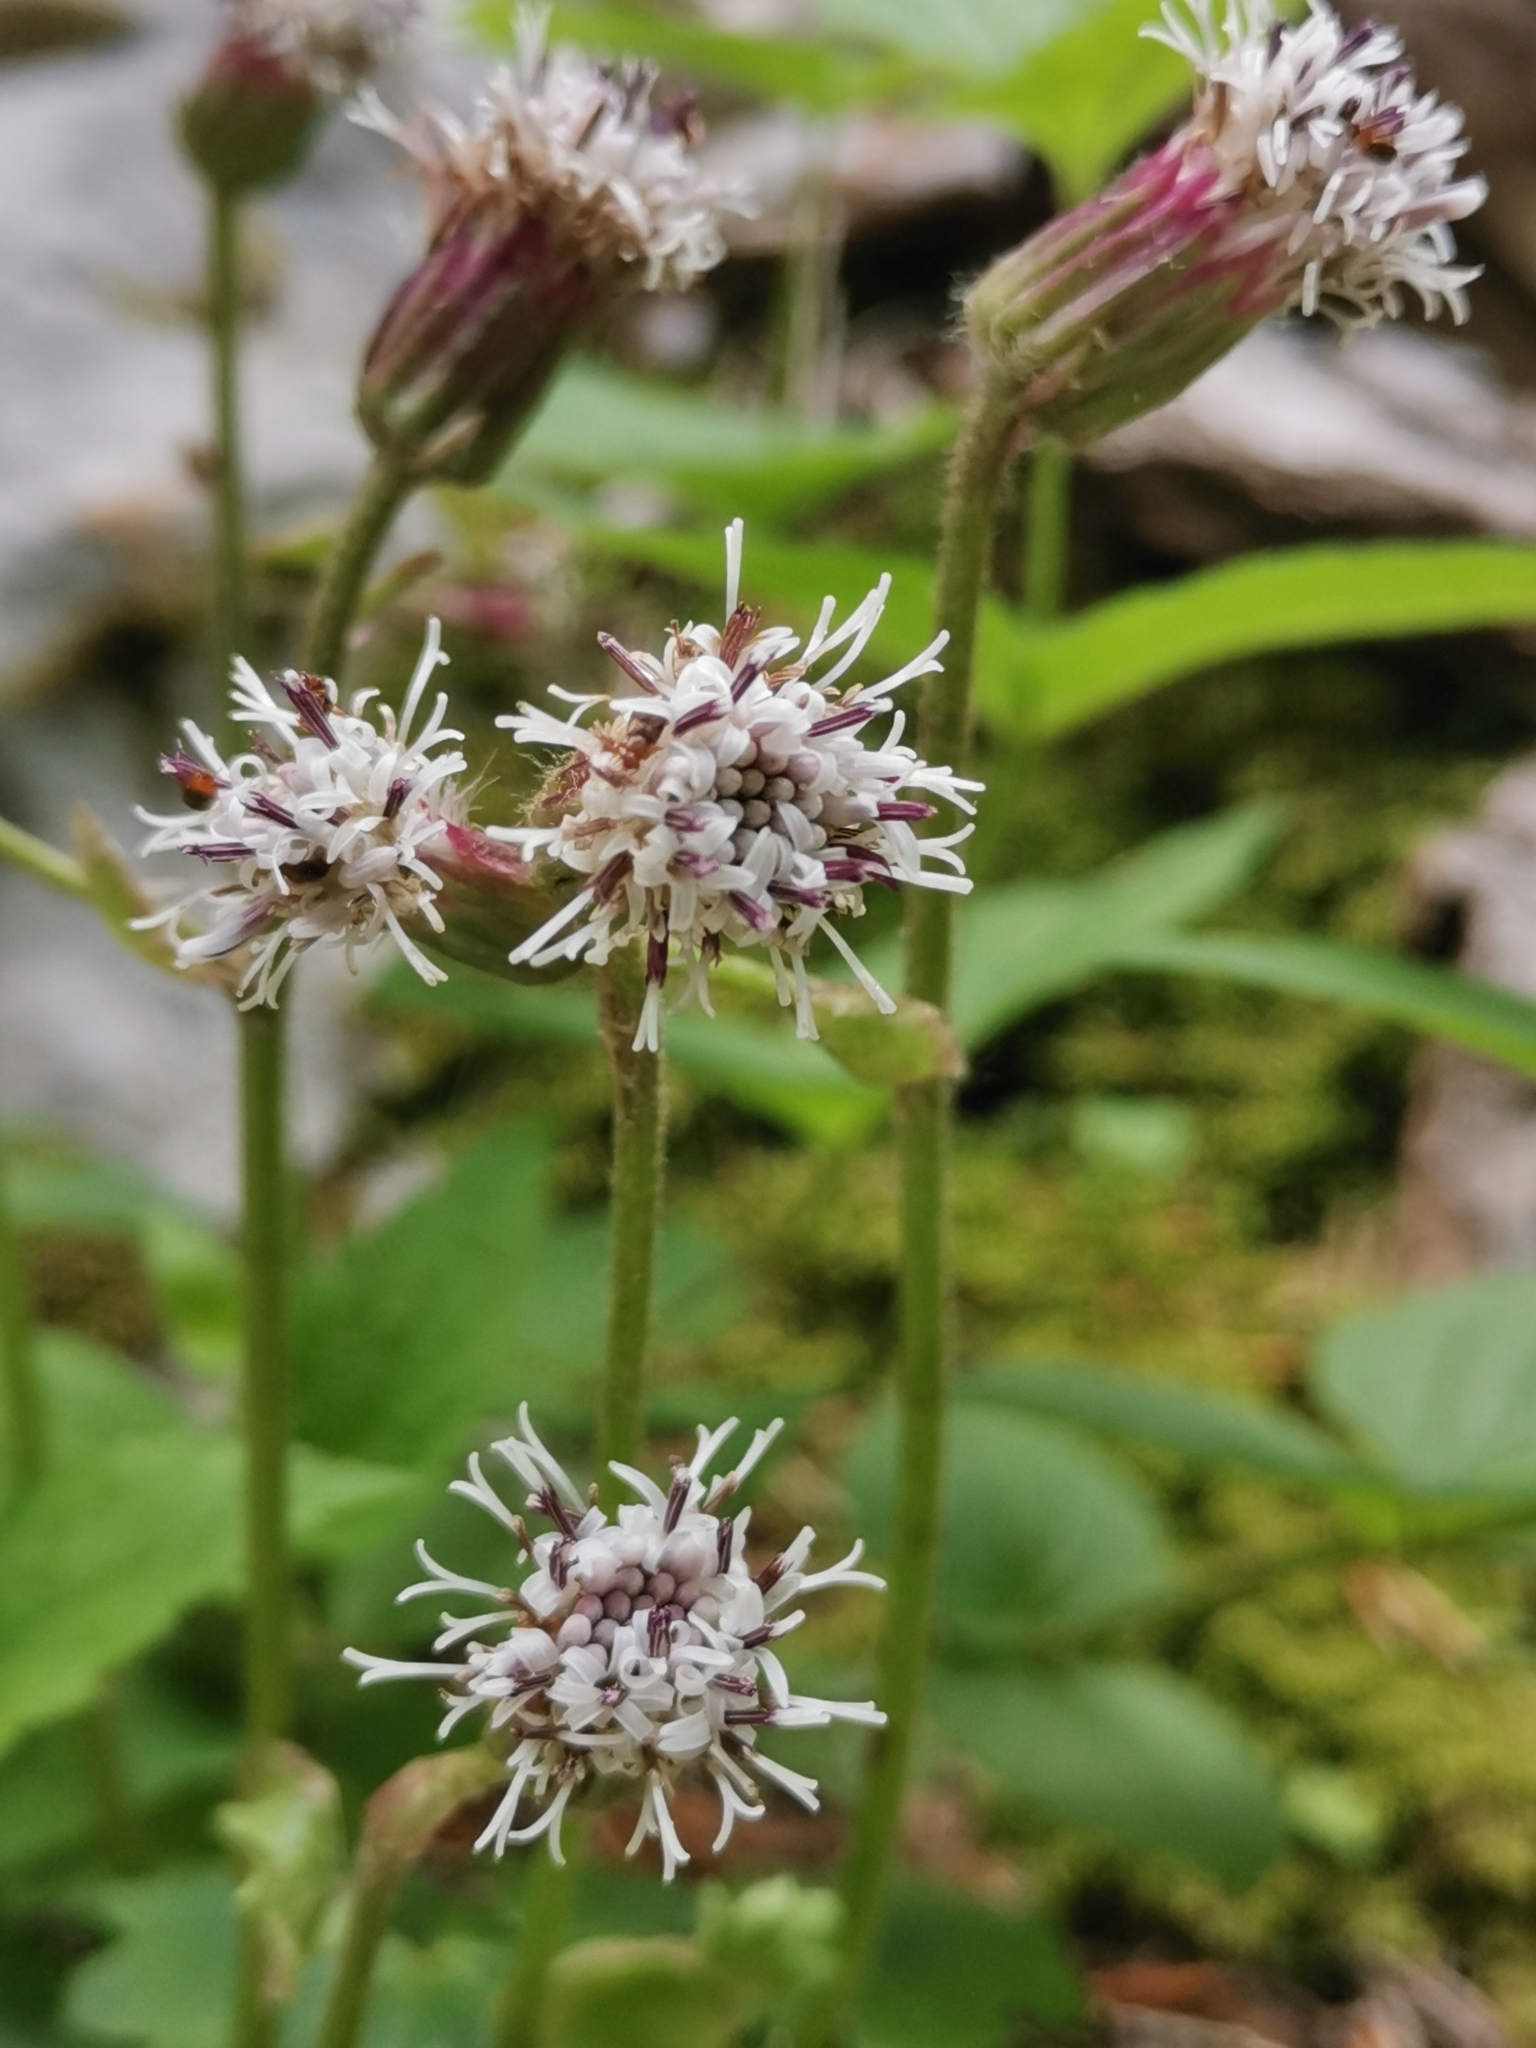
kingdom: Plantae
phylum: Tracheophyta
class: Magnoliopsida
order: Asterales
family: Asteraceae
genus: Homogyne
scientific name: Homogyne sylvestris
